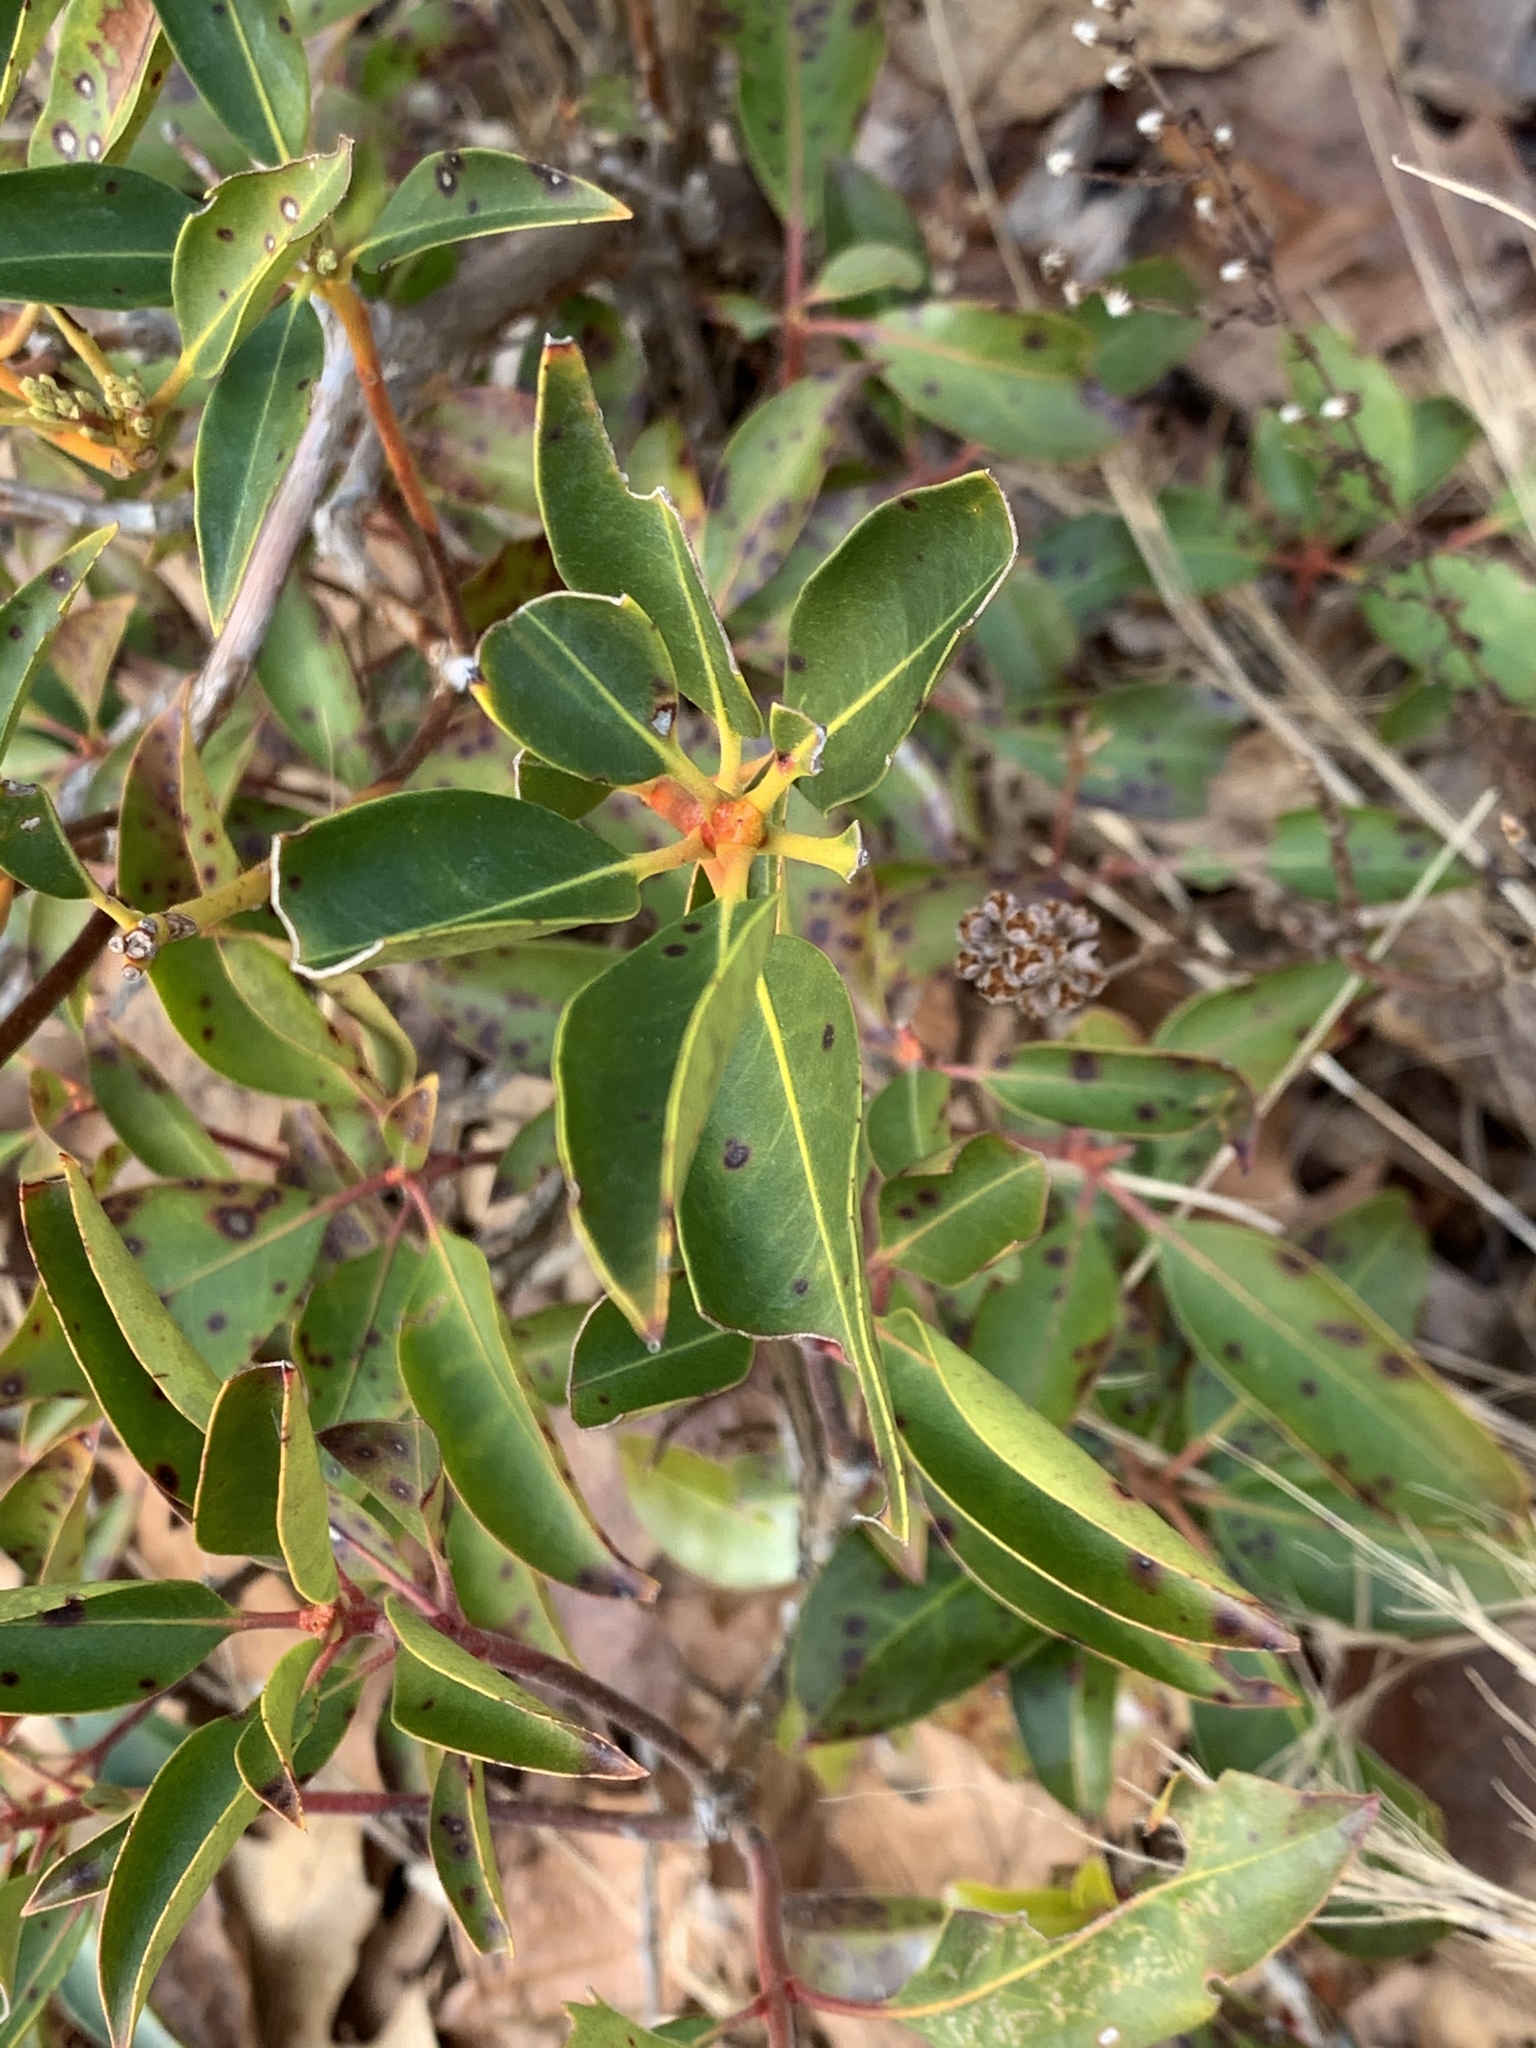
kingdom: Plantae
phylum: Tracheophyta
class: Magnoliopsida
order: Ericales
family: Ericaceae
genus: Kalmia
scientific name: Kalmia latifolia
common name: Mountain-laurel
